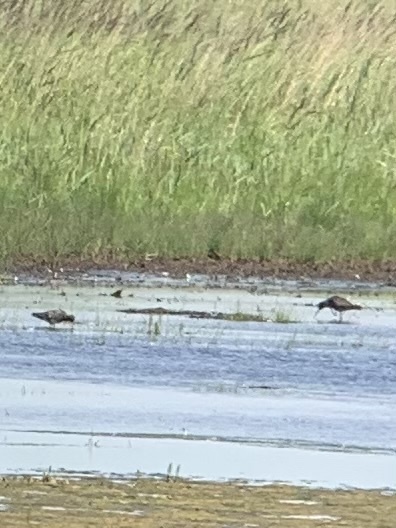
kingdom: Animalia
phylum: Chordata
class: Aves
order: Charadriiformes
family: Scolopacidae
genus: Tringa
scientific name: Tringa erythropus
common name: Spotted redshank
